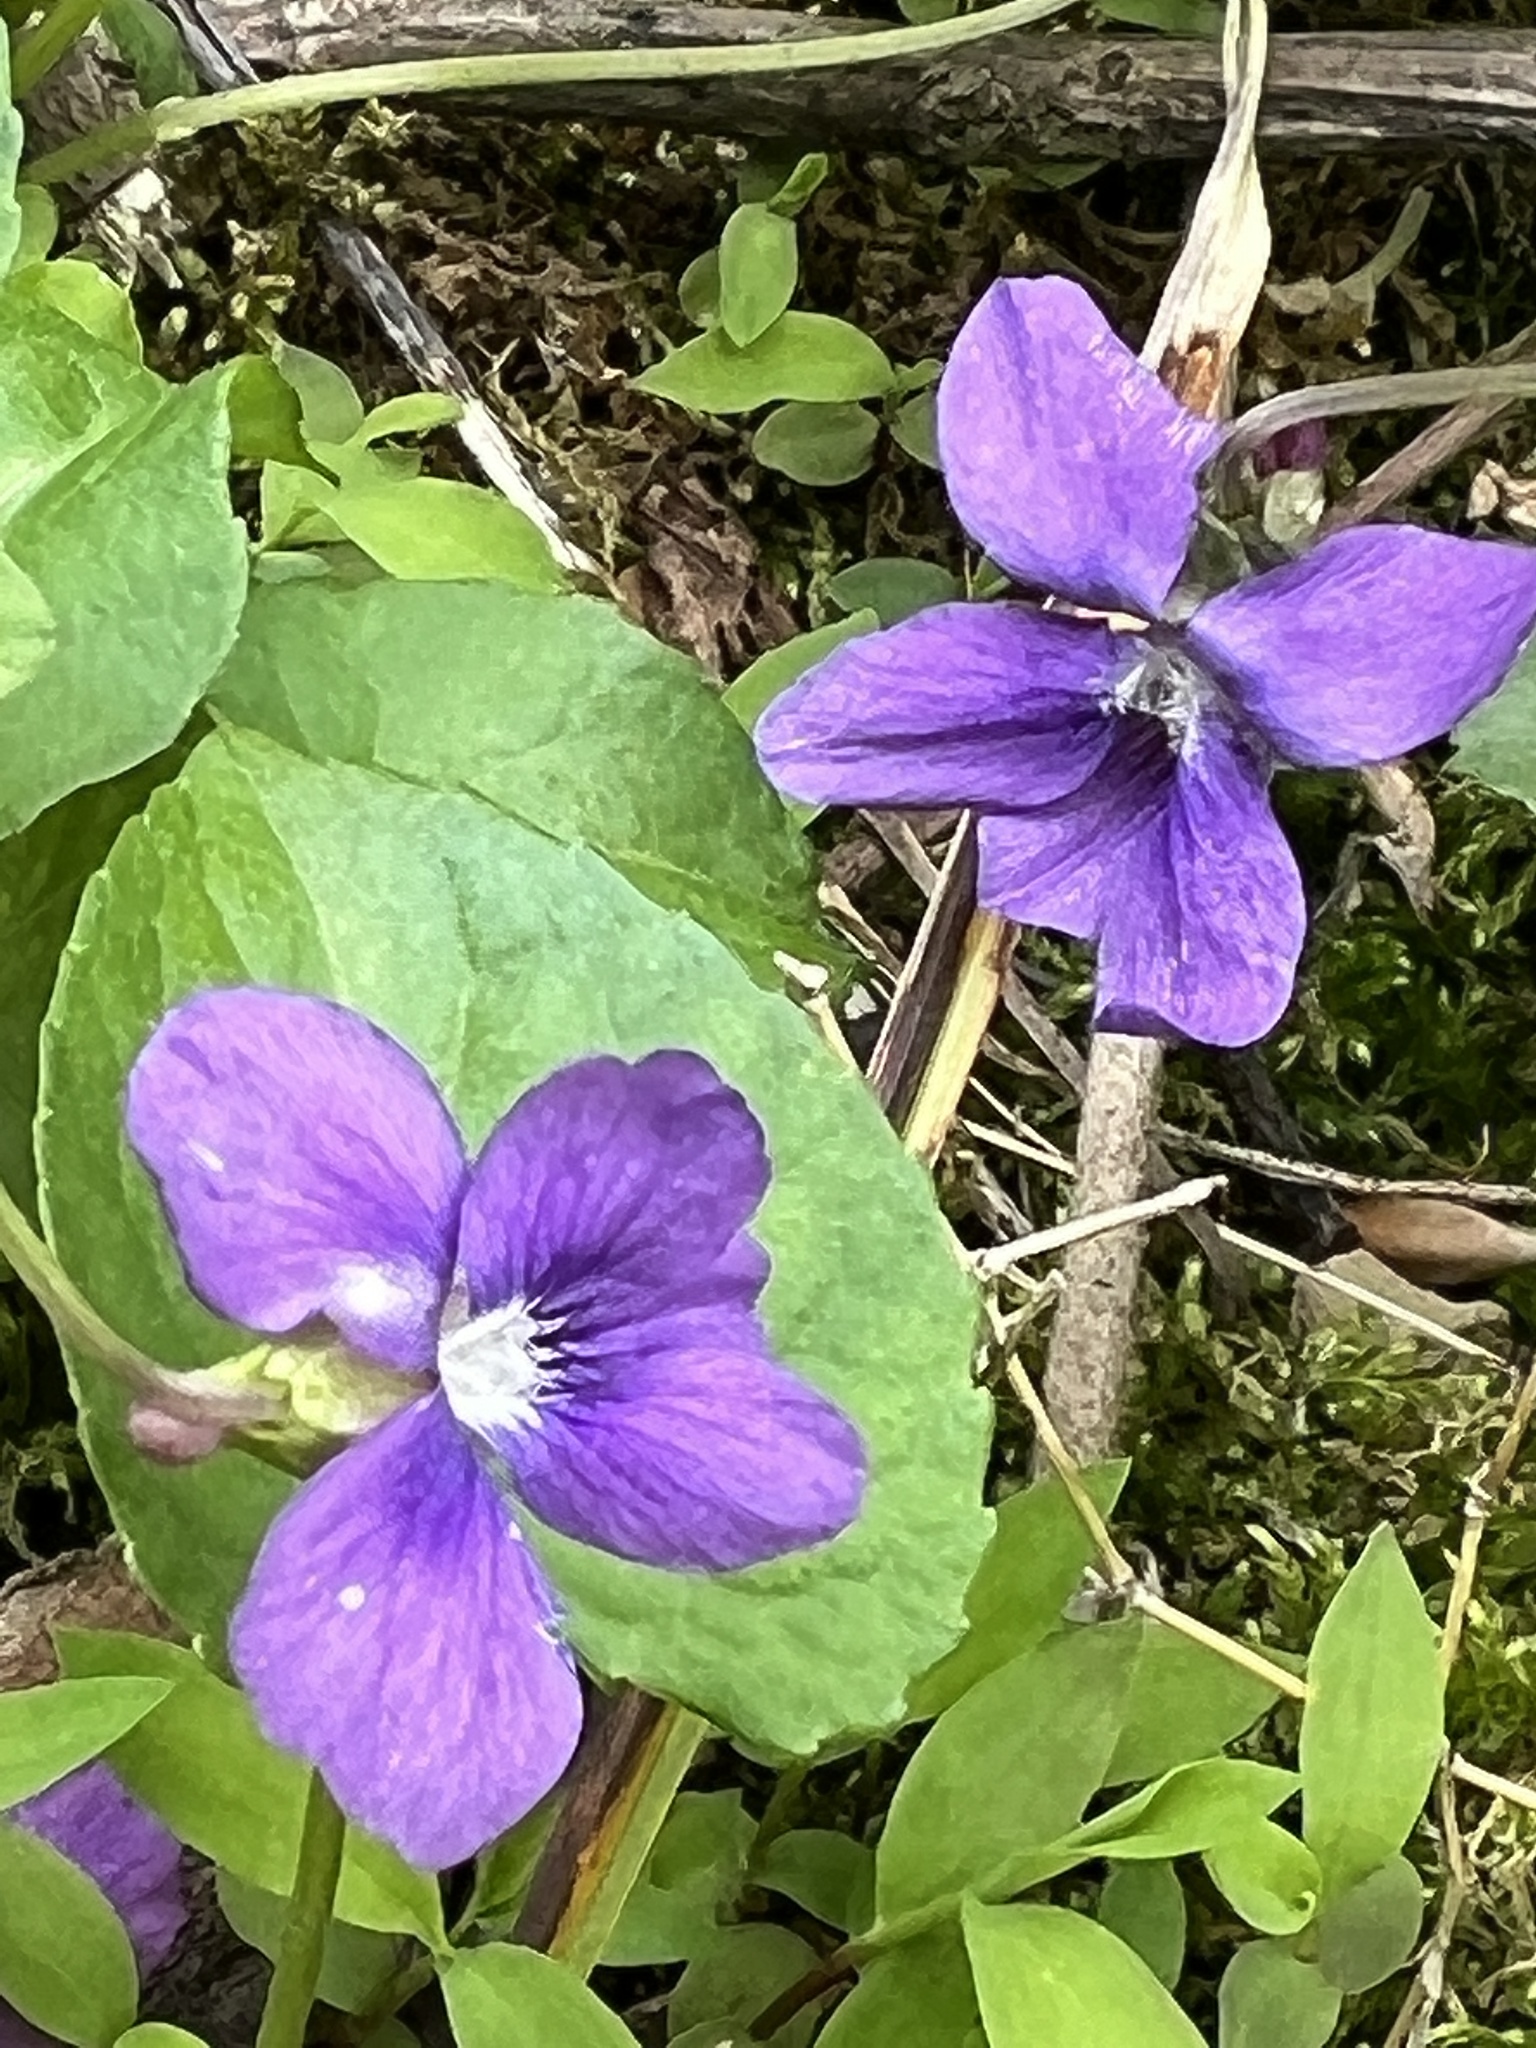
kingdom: Plantae
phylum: Tracheophyta
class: Magnoliopsida
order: Malpighiales
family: Violaceae
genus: Viola
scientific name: Viola sororia
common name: Dooryard violet
